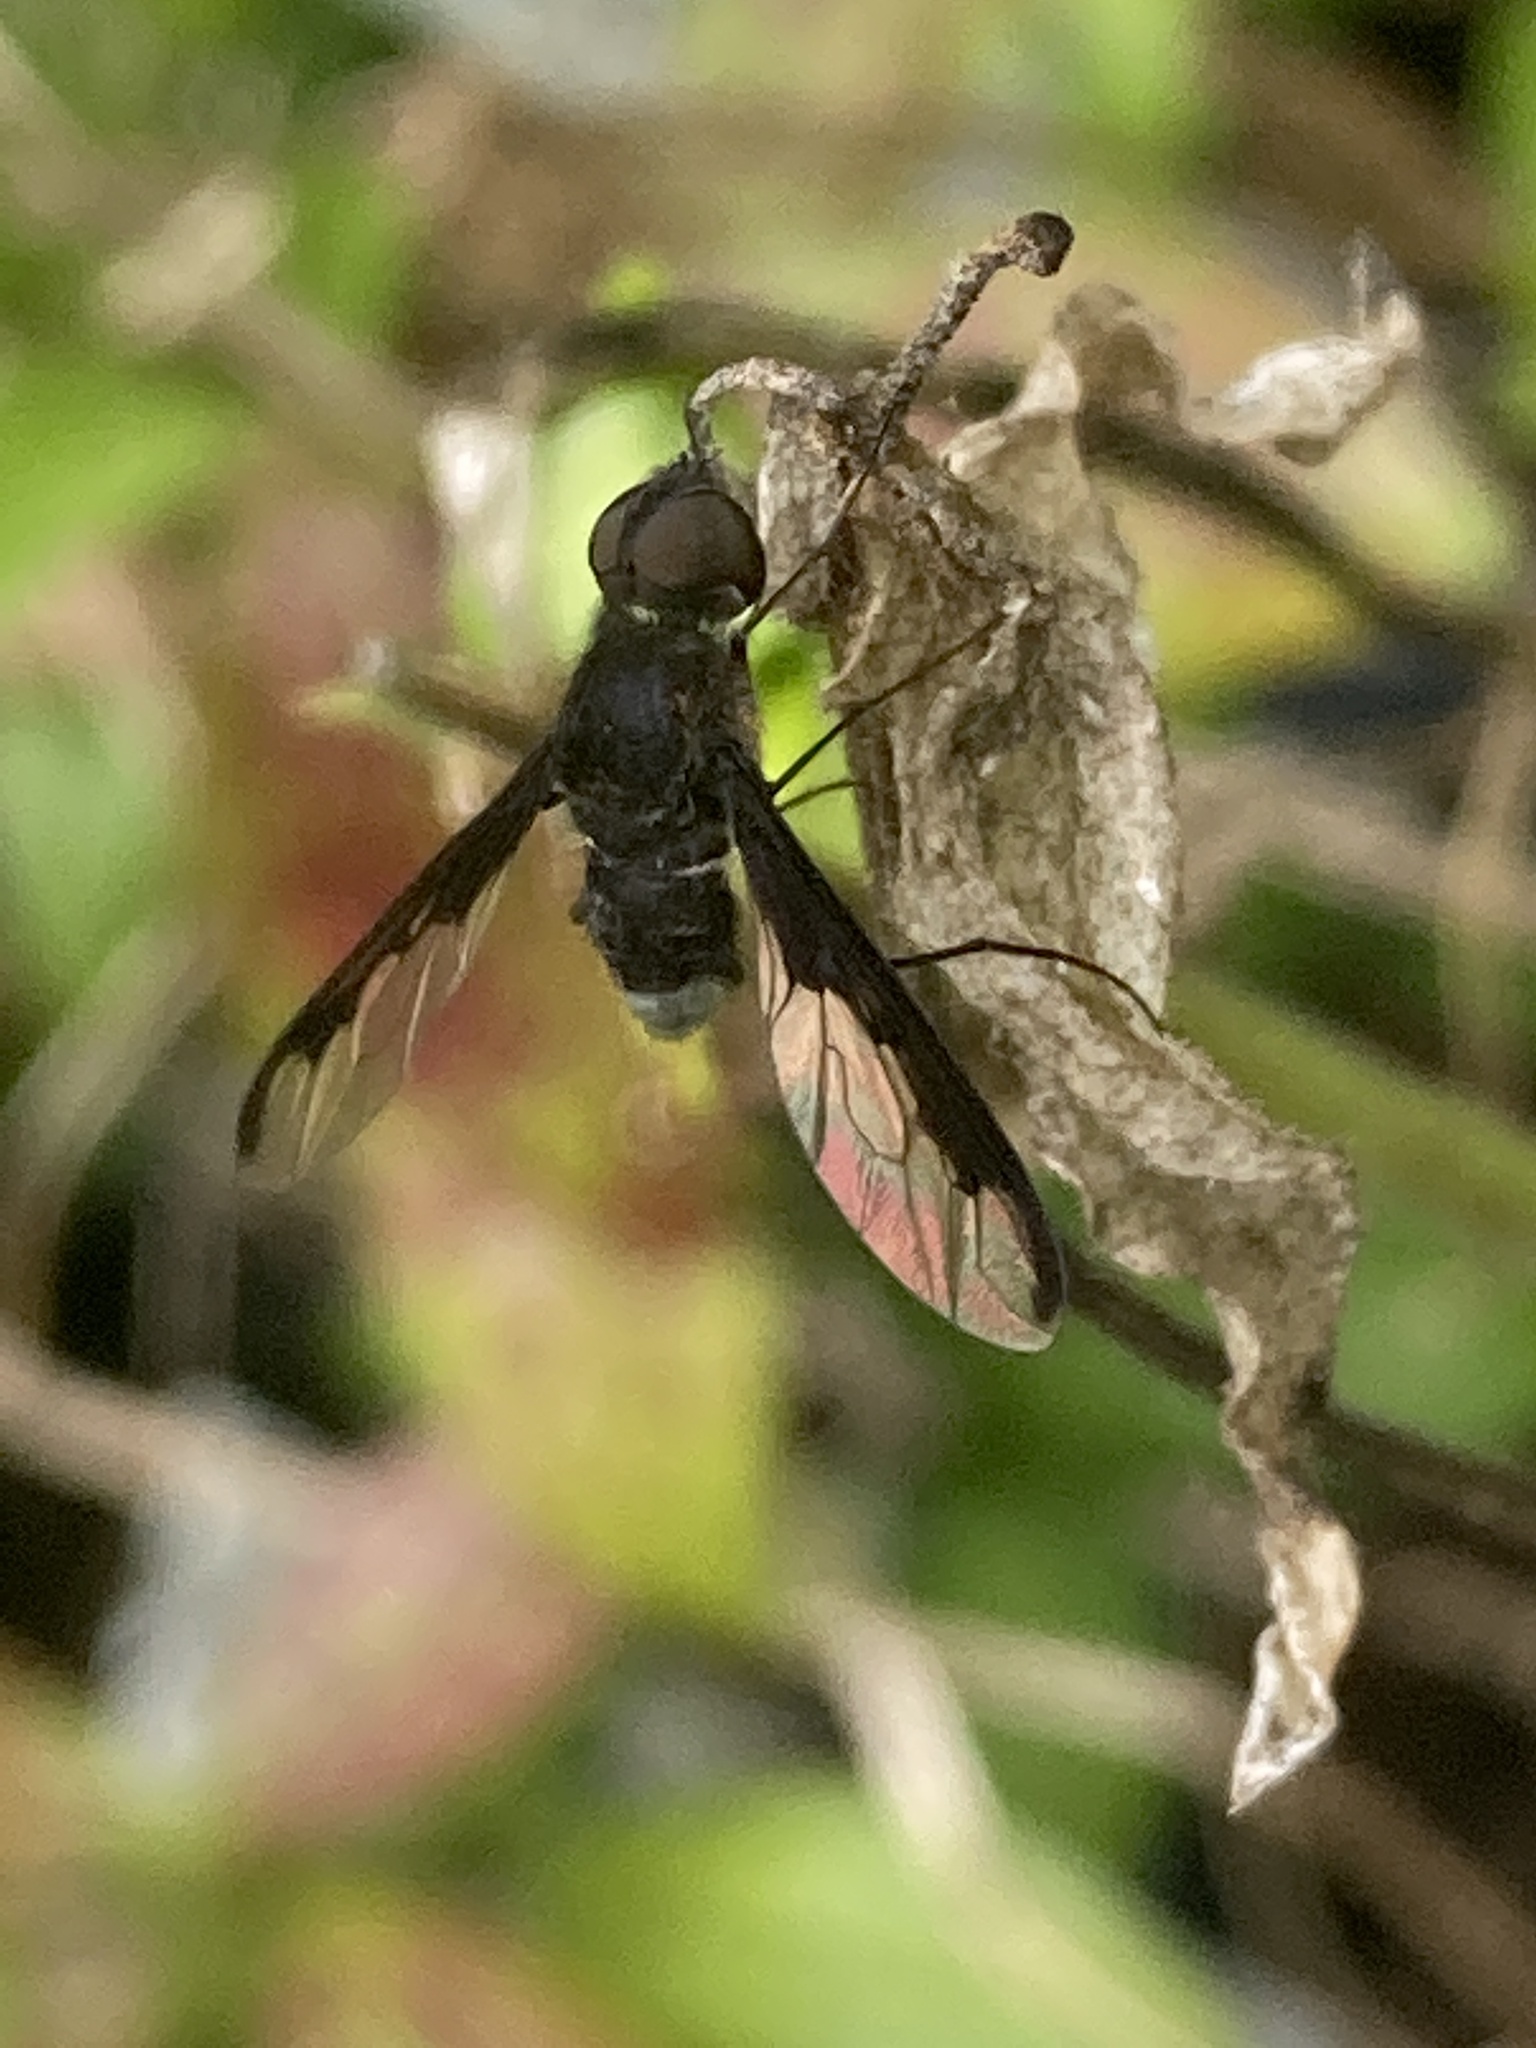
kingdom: Animalia
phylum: Arthropoda
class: Insecta
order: Diptera
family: Bombyliidae
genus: Anthrax
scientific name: Anthrax argyropygus
